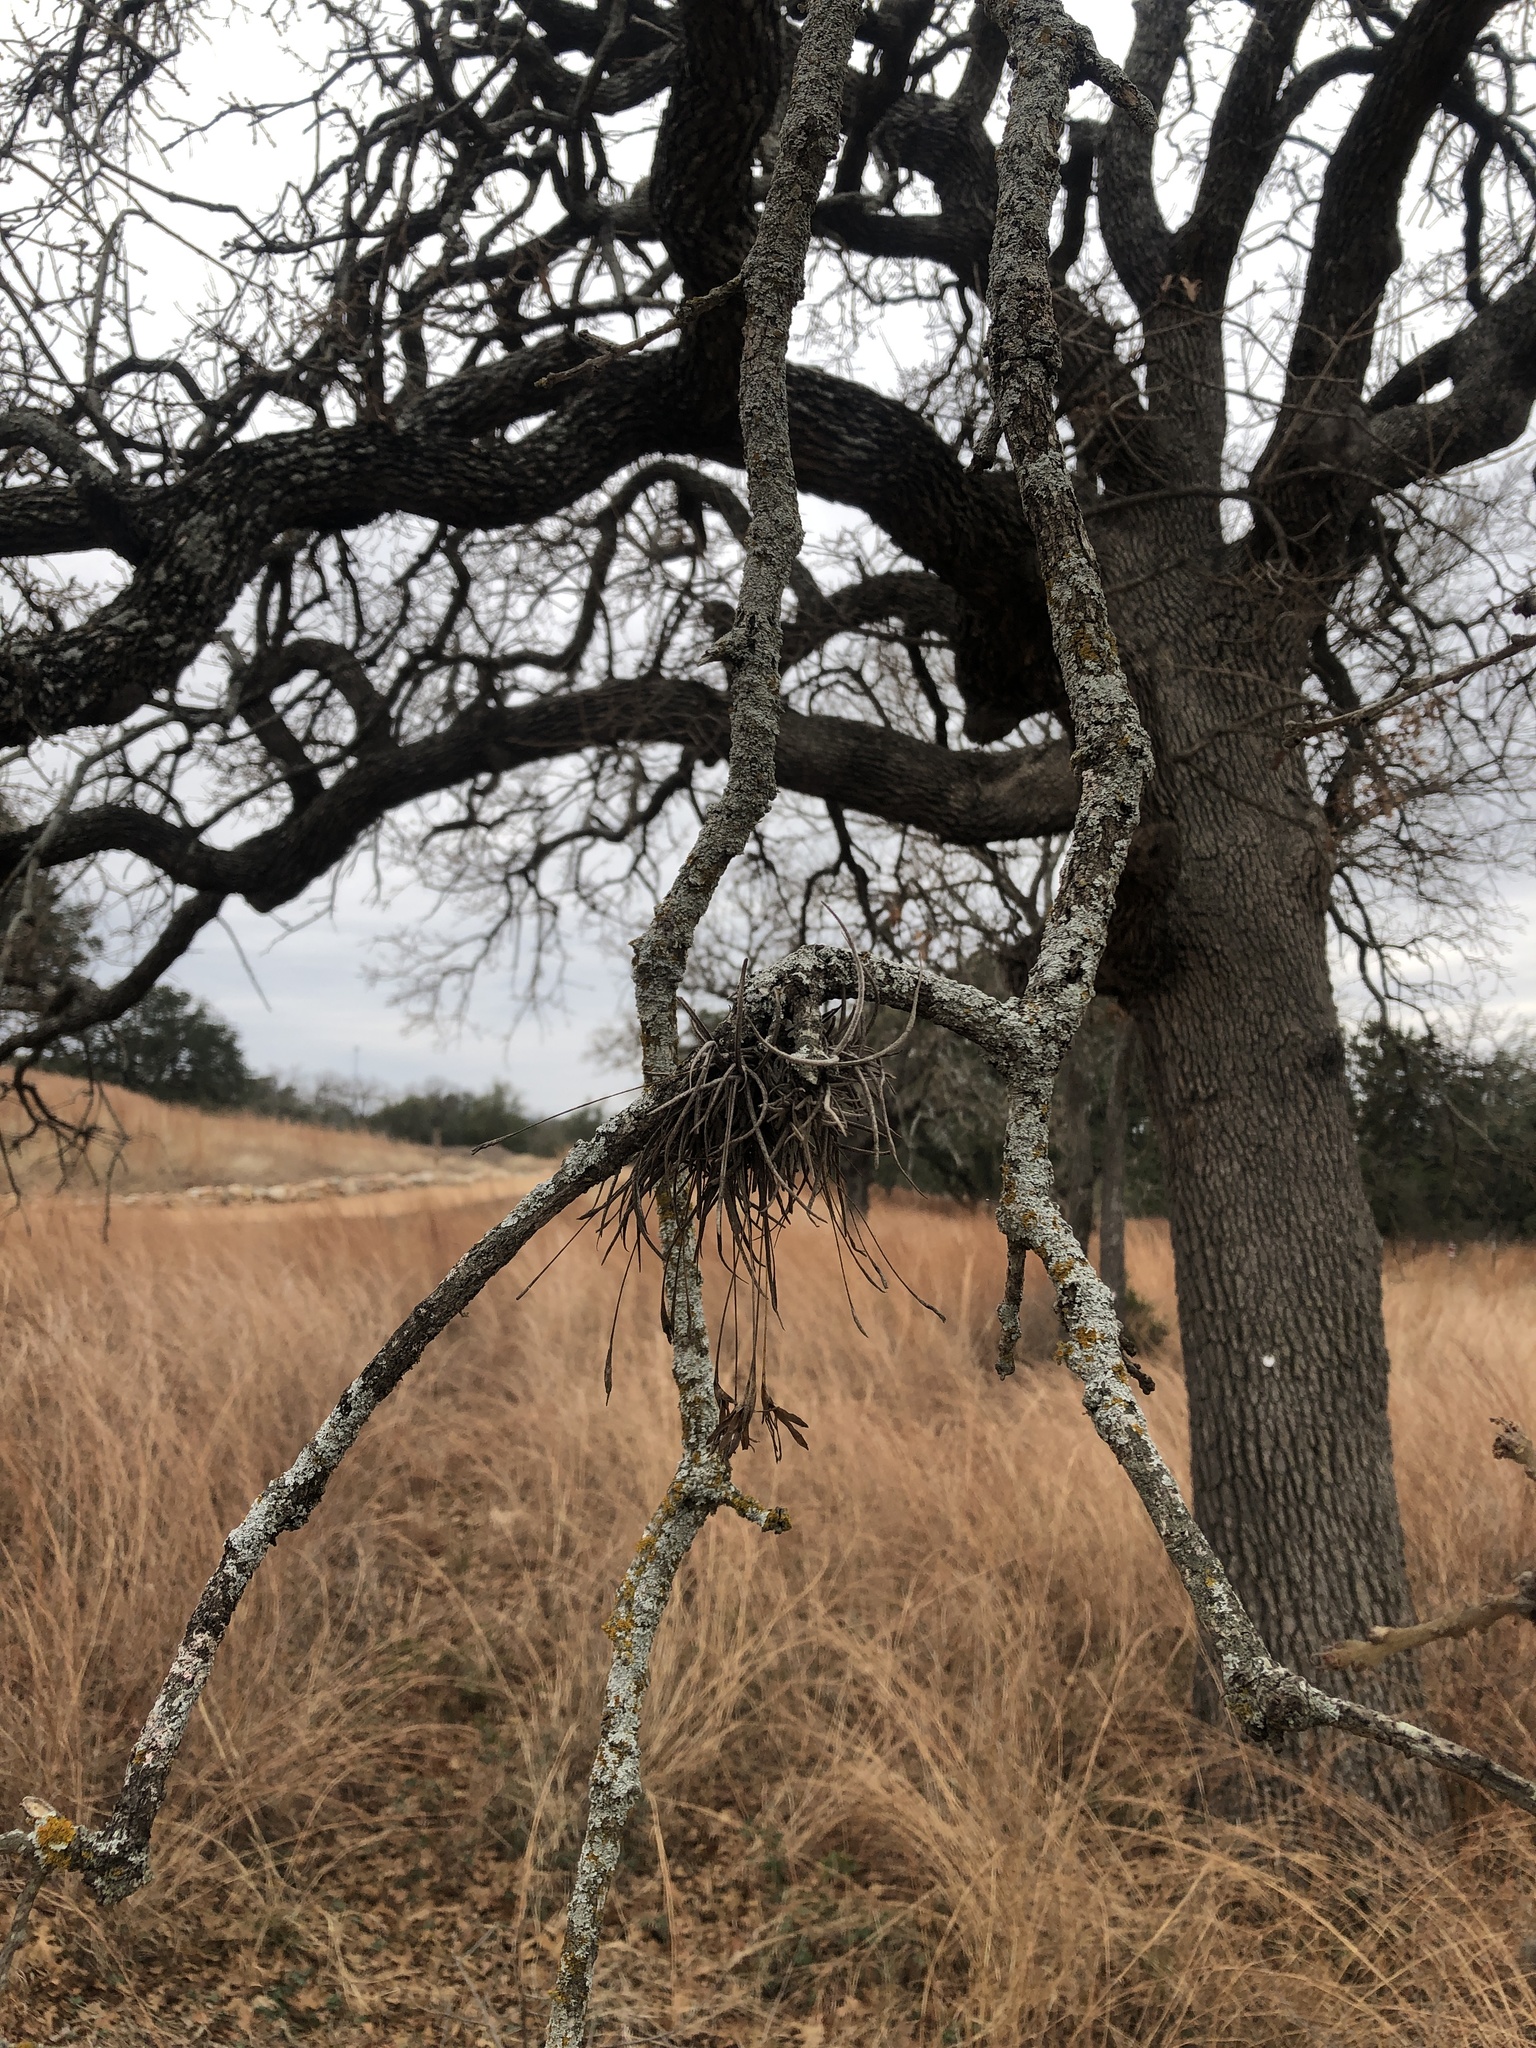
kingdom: Plantae
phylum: Tracheophyta
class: Liliopsida
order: Poales
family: Bromeliaceae
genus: Tillandsia
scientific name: Tillandsia recurvata
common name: Small ballmoss
